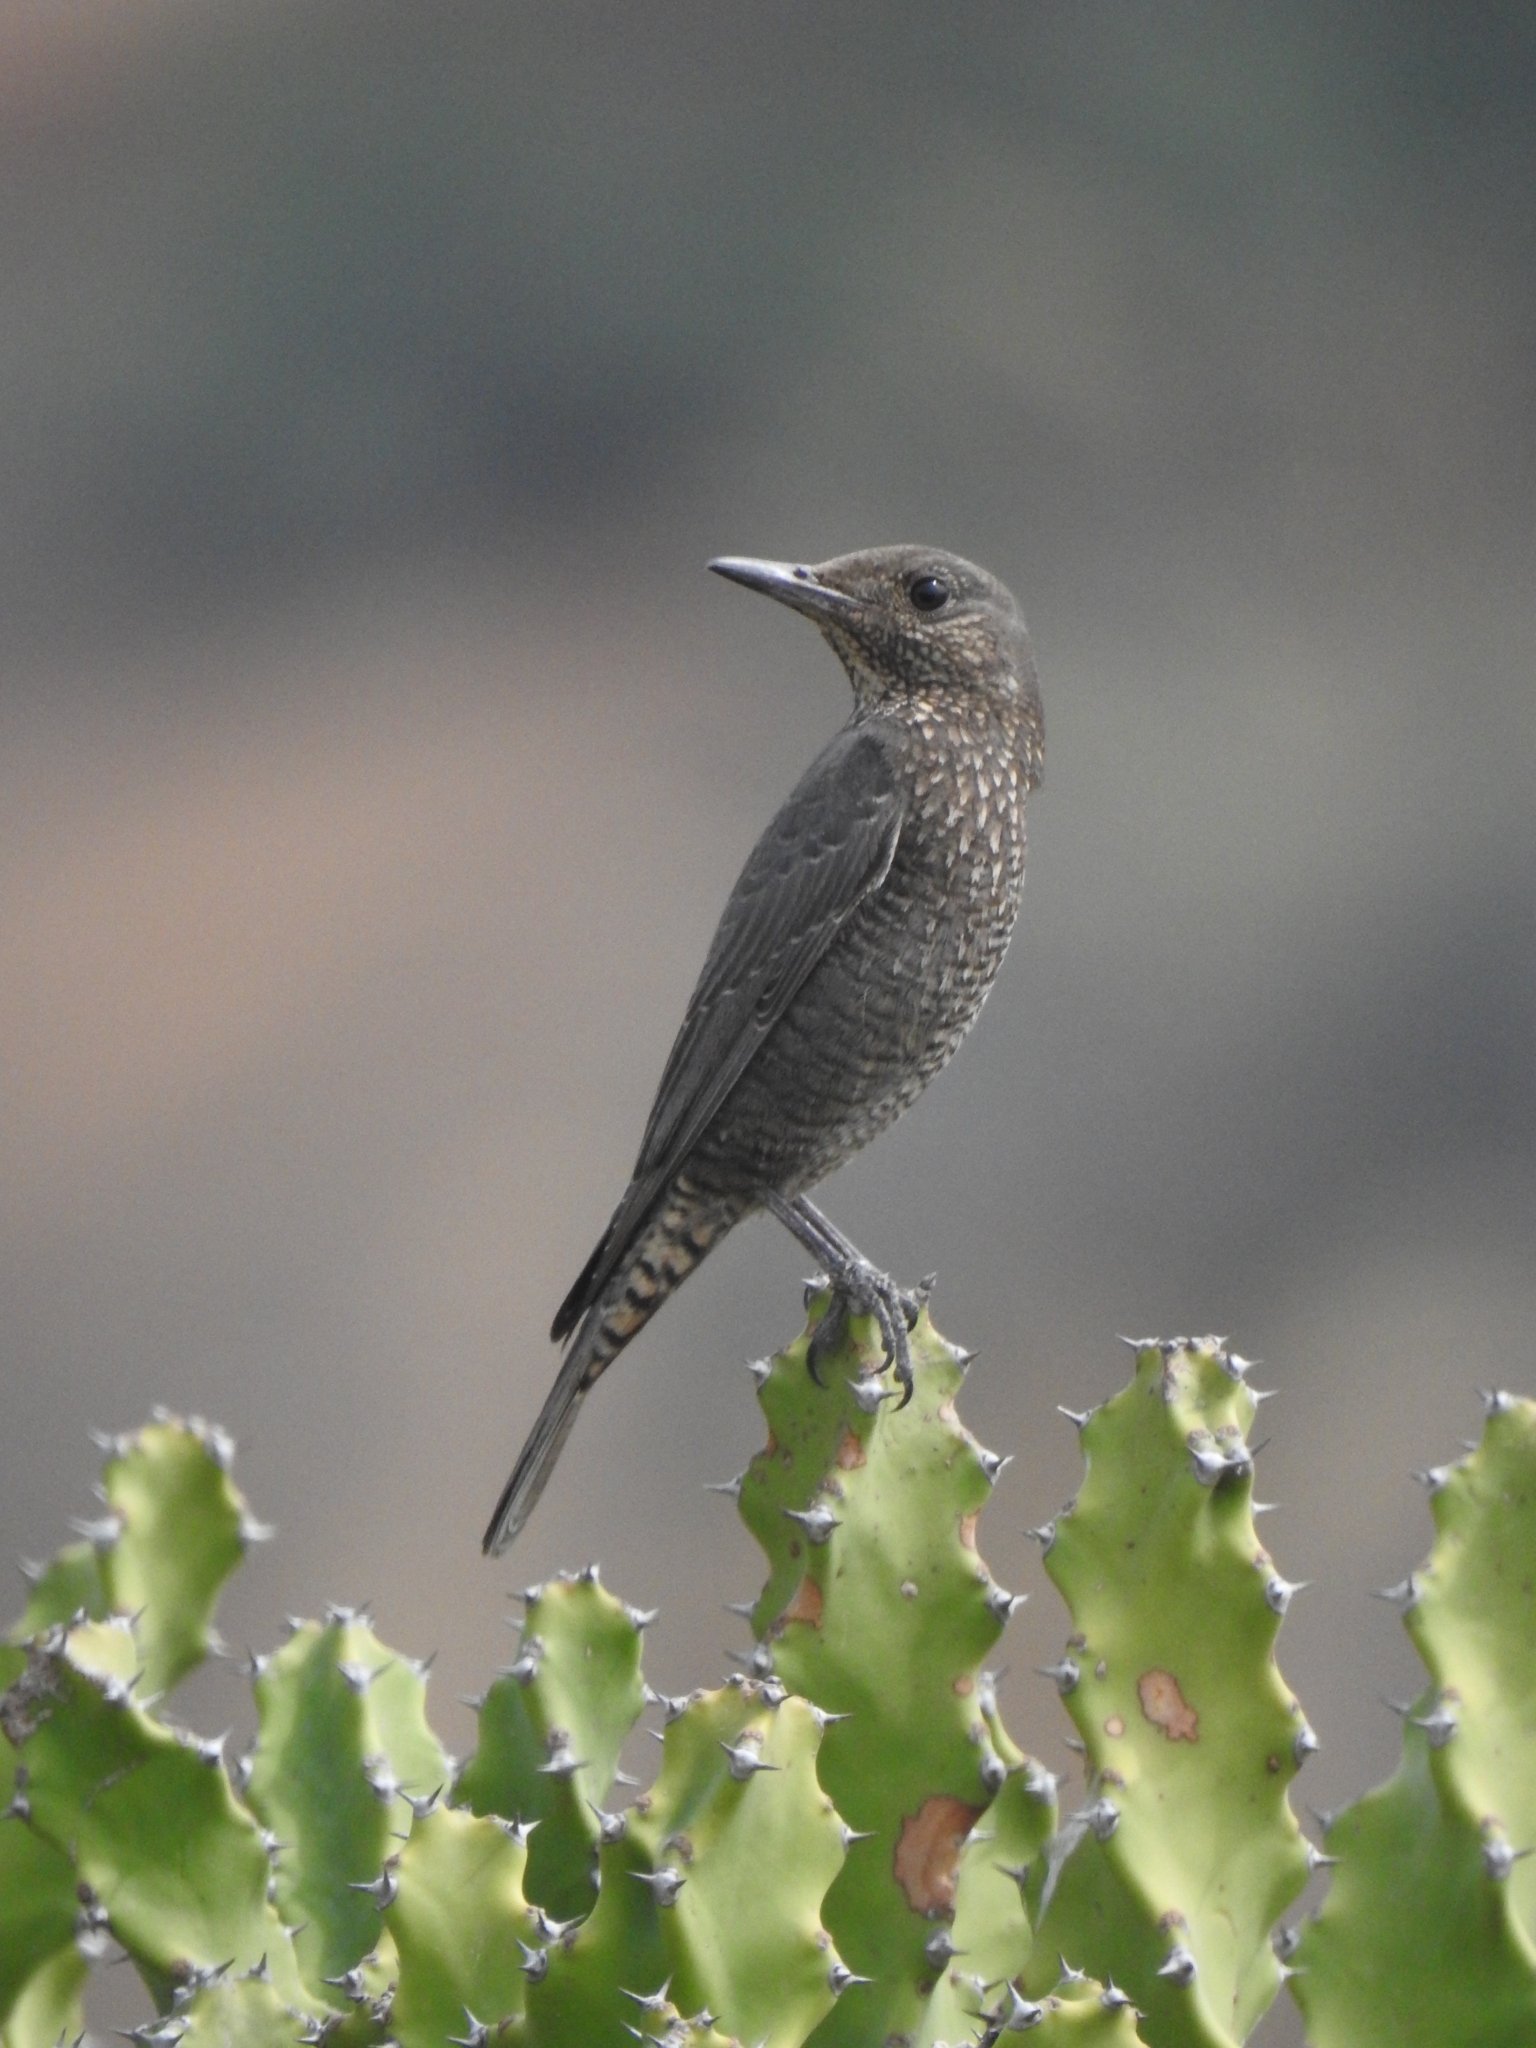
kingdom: Animalia
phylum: Chordata
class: Aves
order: Passeriformes
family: Muscicapidae
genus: Monticola
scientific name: Monticola solitarius
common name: Blue rock thrush
